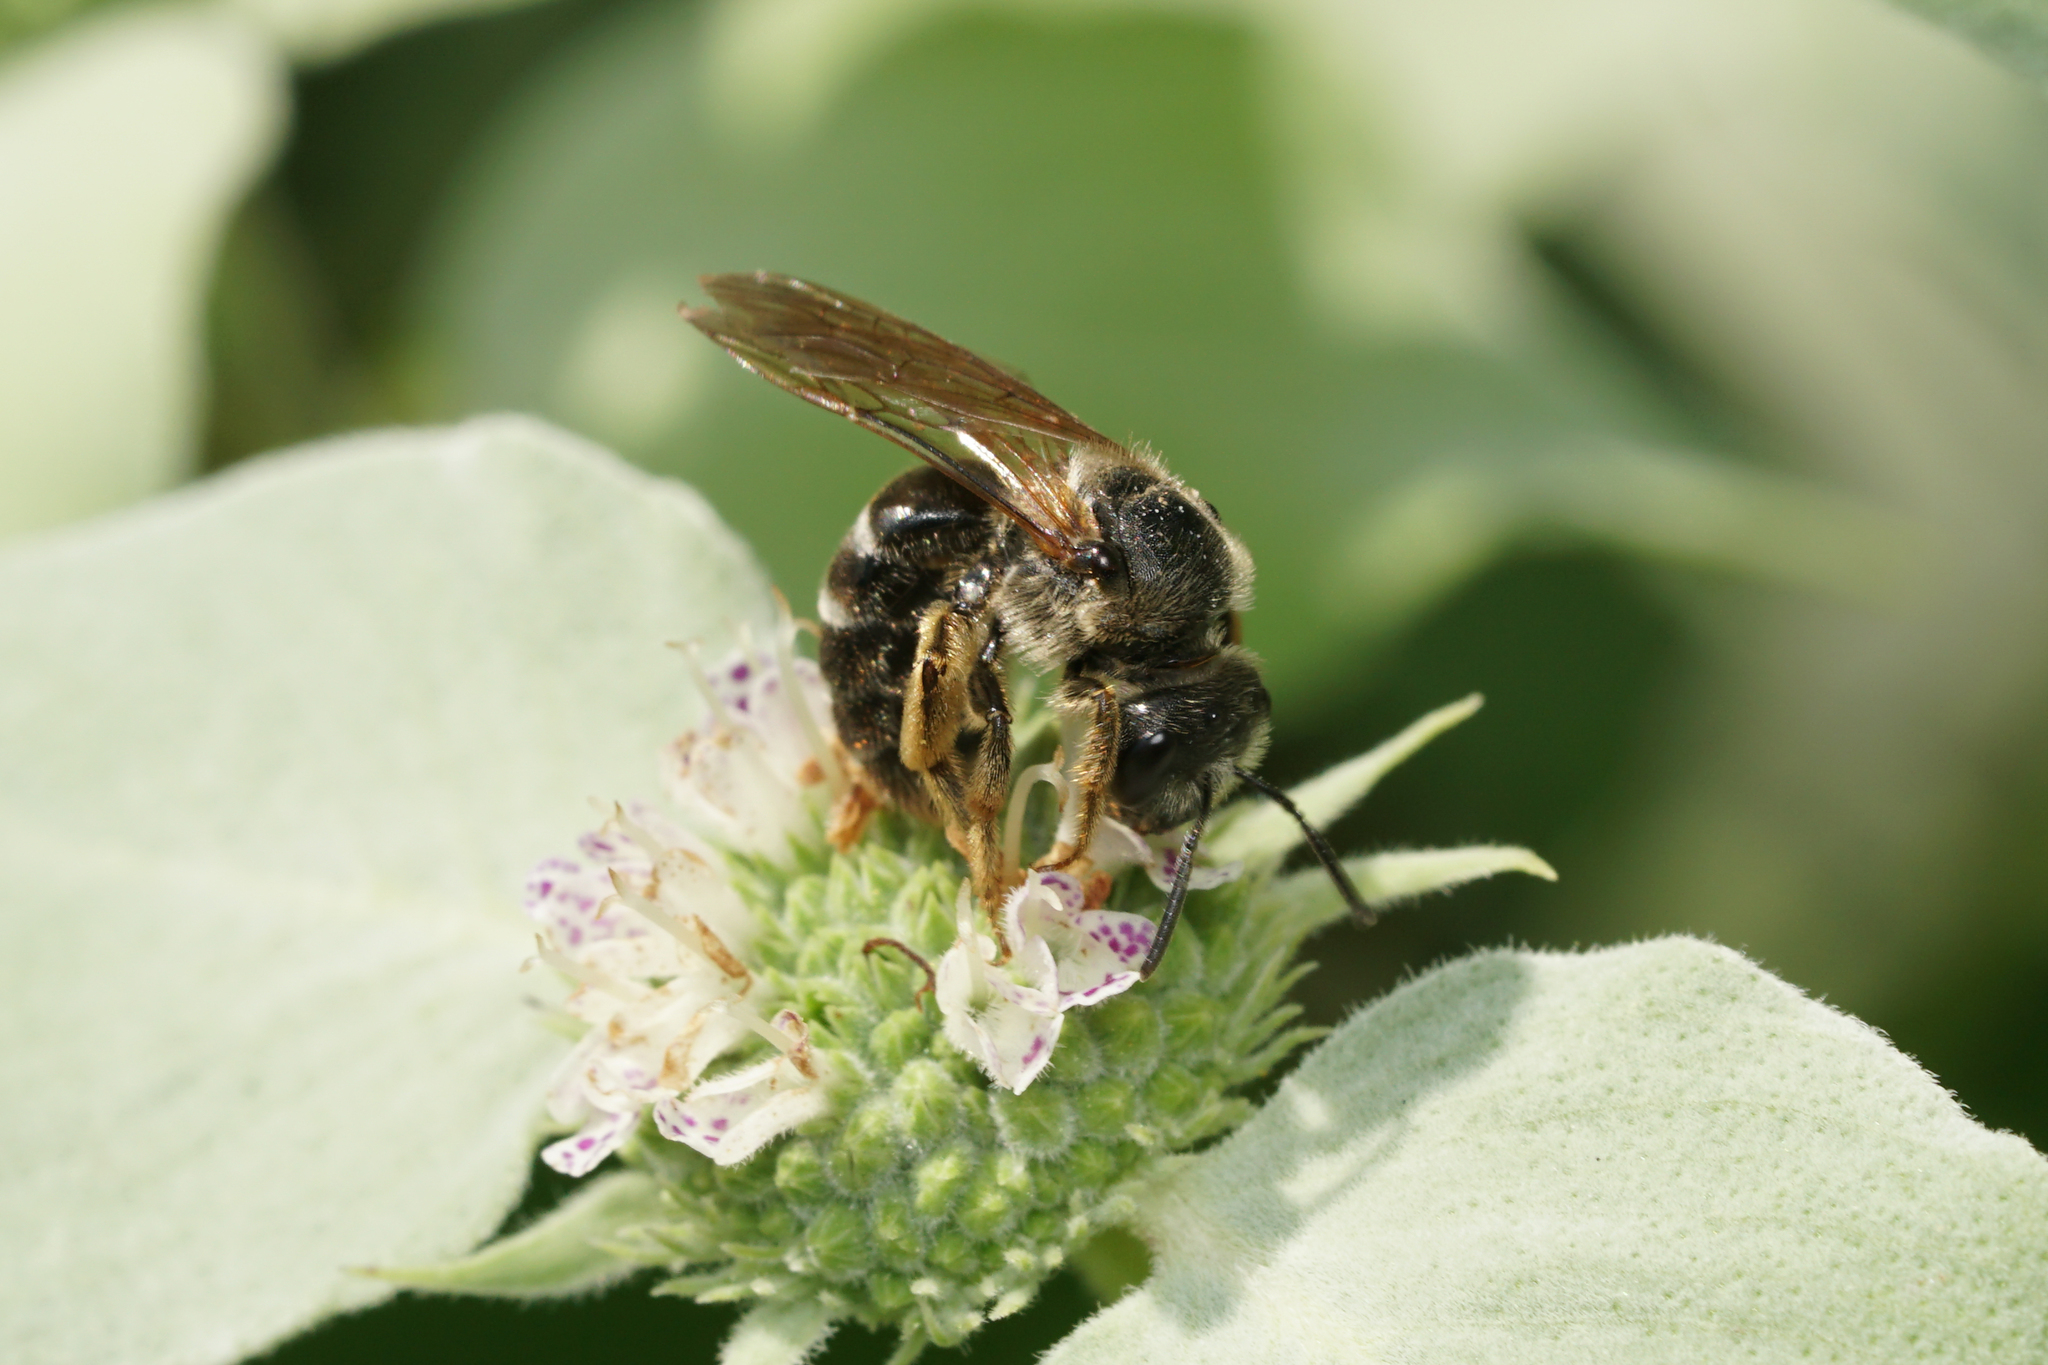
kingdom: Animalia
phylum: Arthropoda
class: Insecta
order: Hymenoptera
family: Halictidae
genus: Halictus
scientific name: Halictus rubicundus
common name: Orange-legged furrow bee
